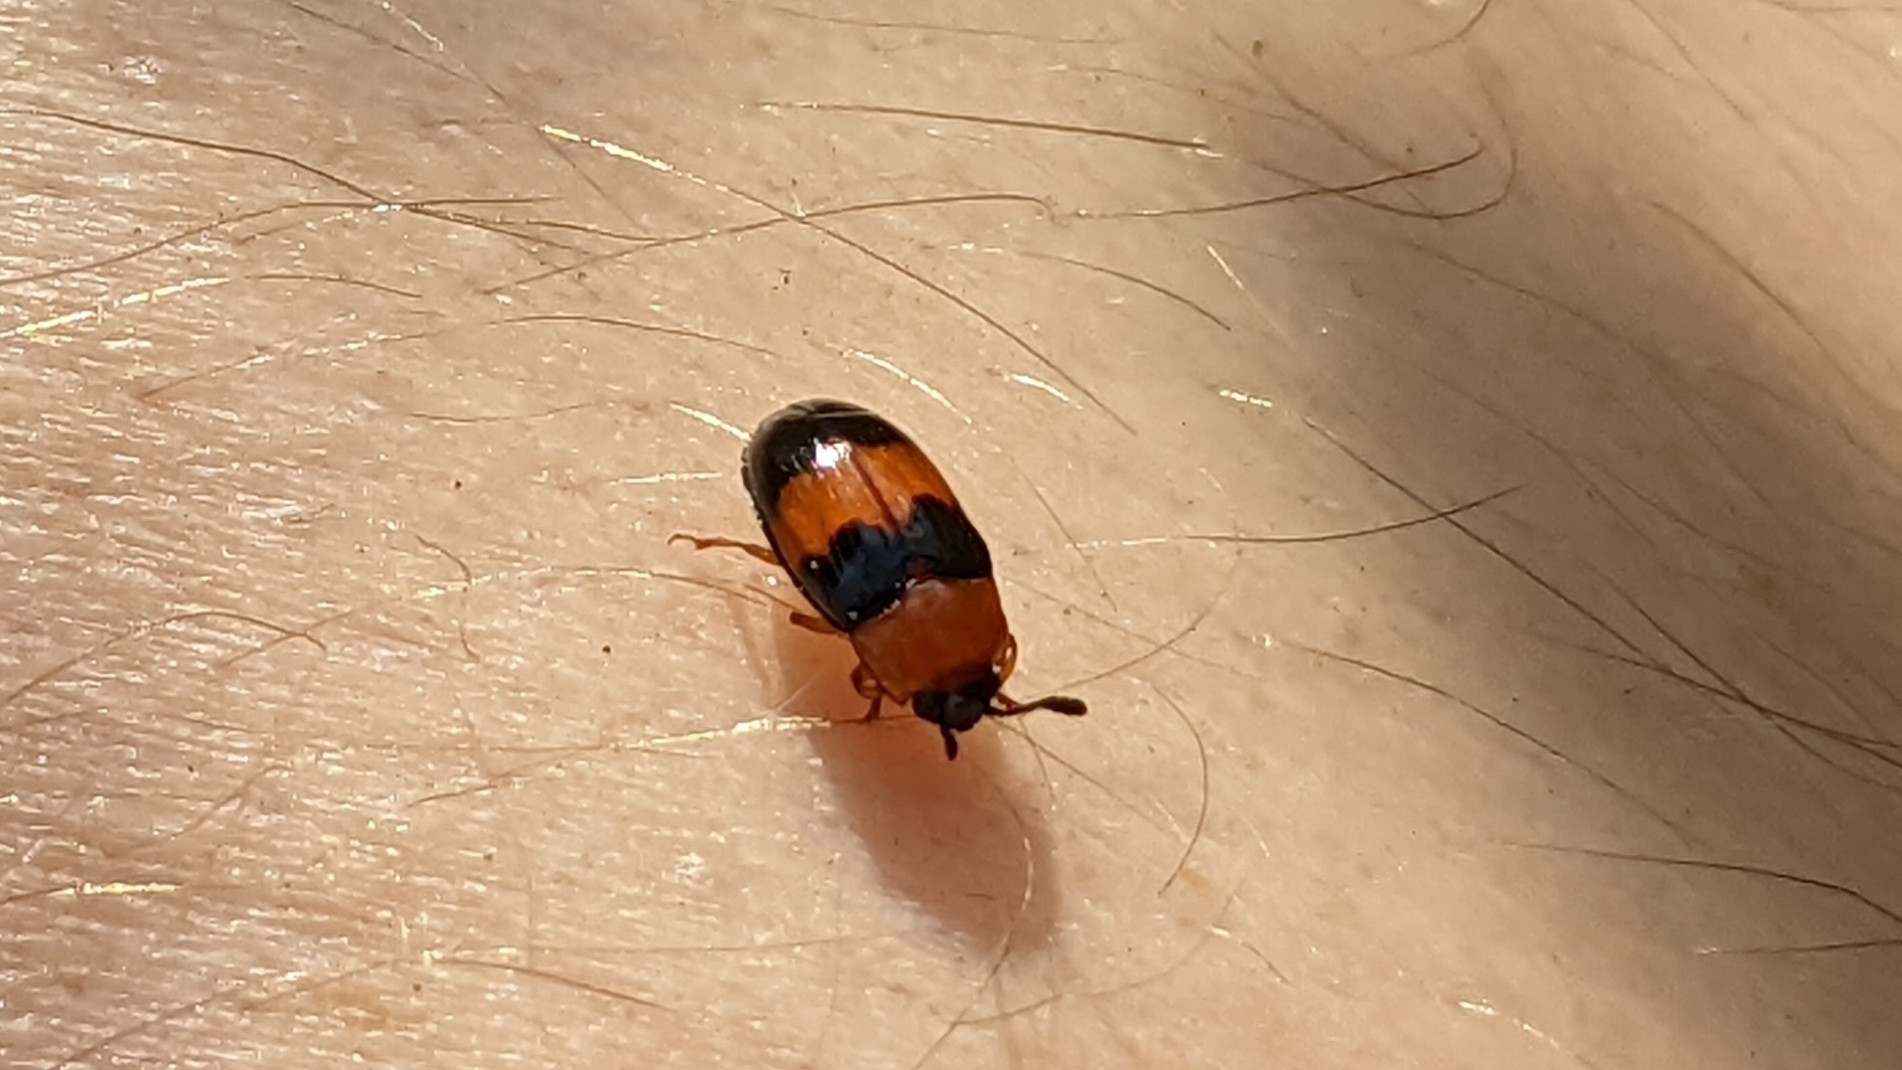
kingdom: Animalia
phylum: Arthropoda
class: Insecta
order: Coleoptera
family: Erotylidae
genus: Triplax
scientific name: Triplax festiva
